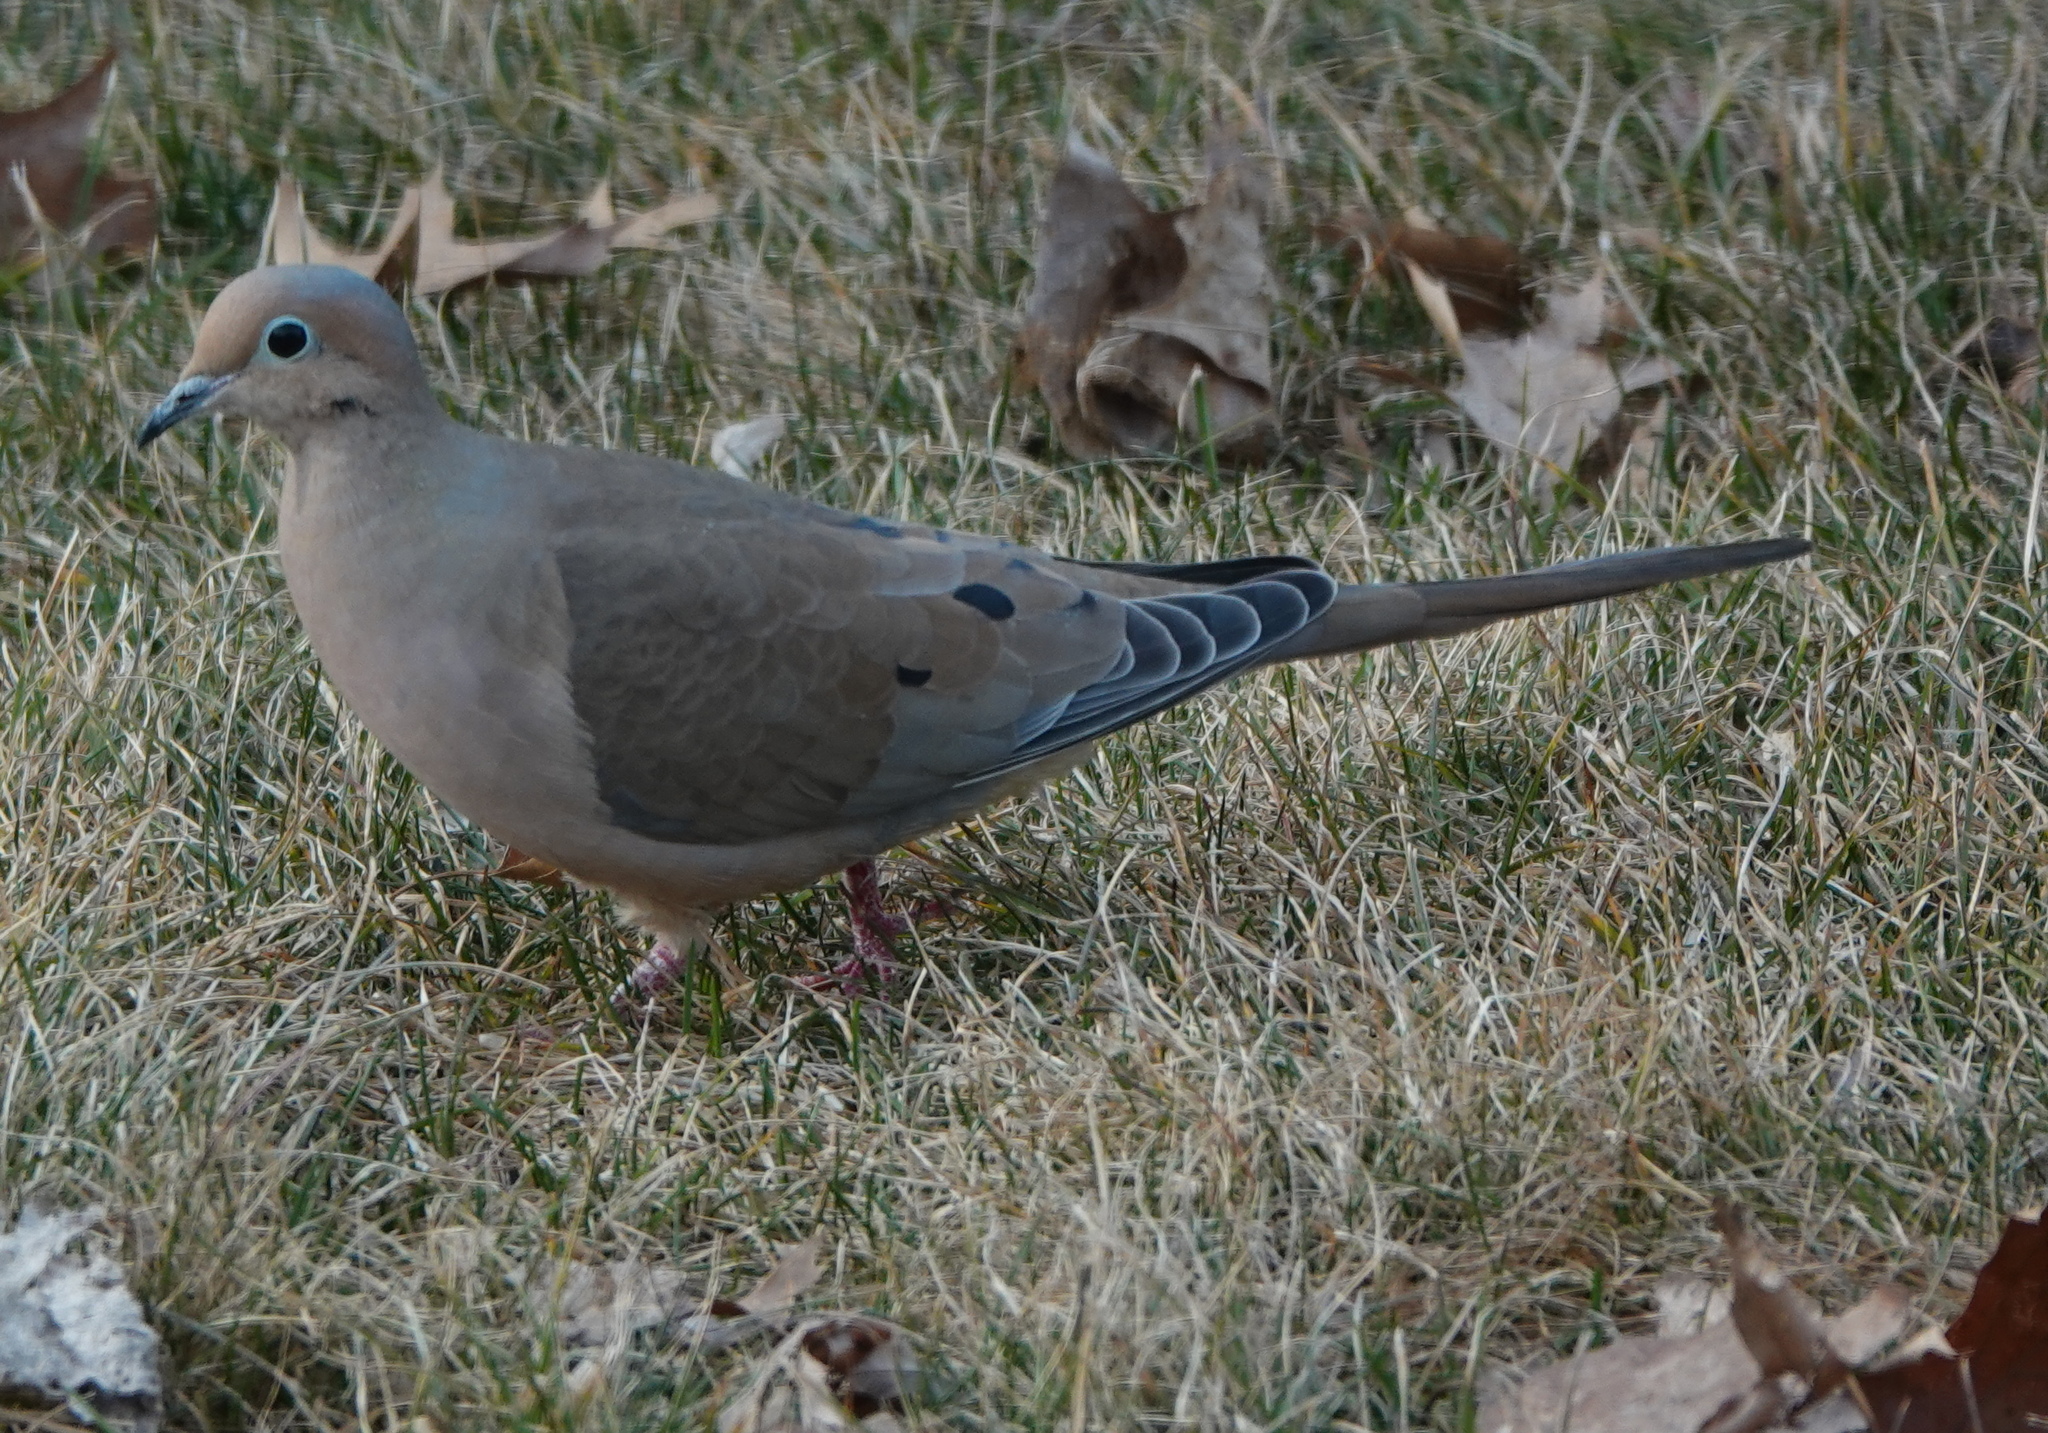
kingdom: Animalia
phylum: Chordata
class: Aves
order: Columbiformes
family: Columbidae
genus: Zenaida
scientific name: Zenaida macroura
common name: Mourning dove
